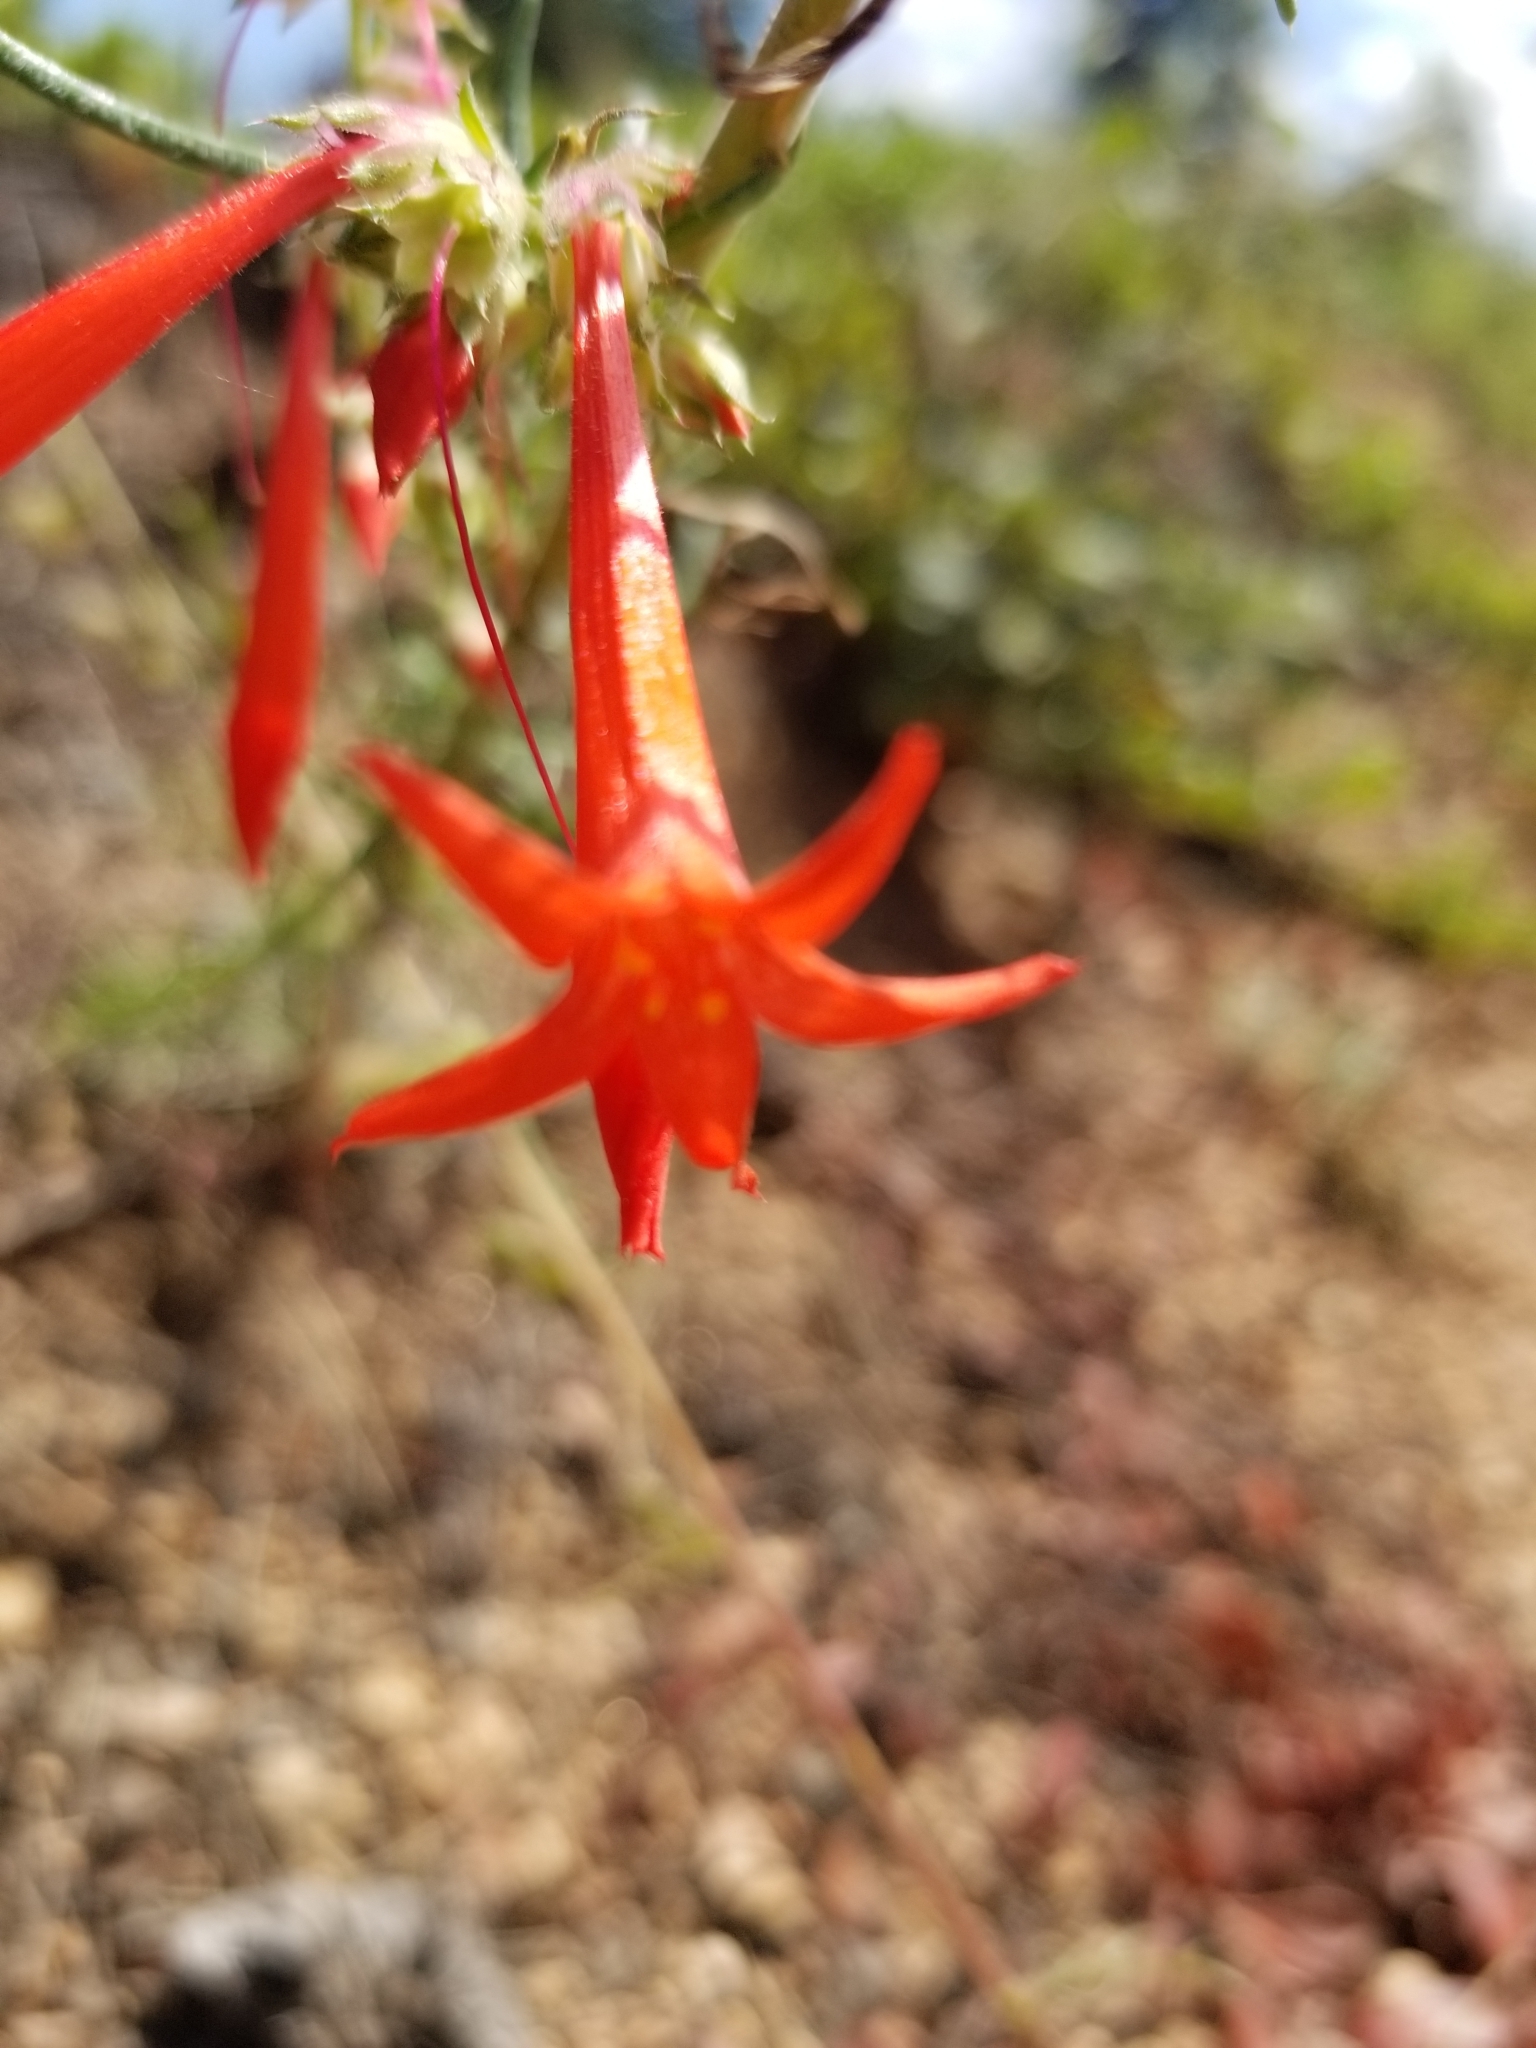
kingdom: Plantae
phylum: Tracheophyta
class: Magnoliopsida
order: Ericales
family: Polemoniaceae
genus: Ipomopsis
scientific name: Ipomopsis aggregata
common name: Scarlet gilia
